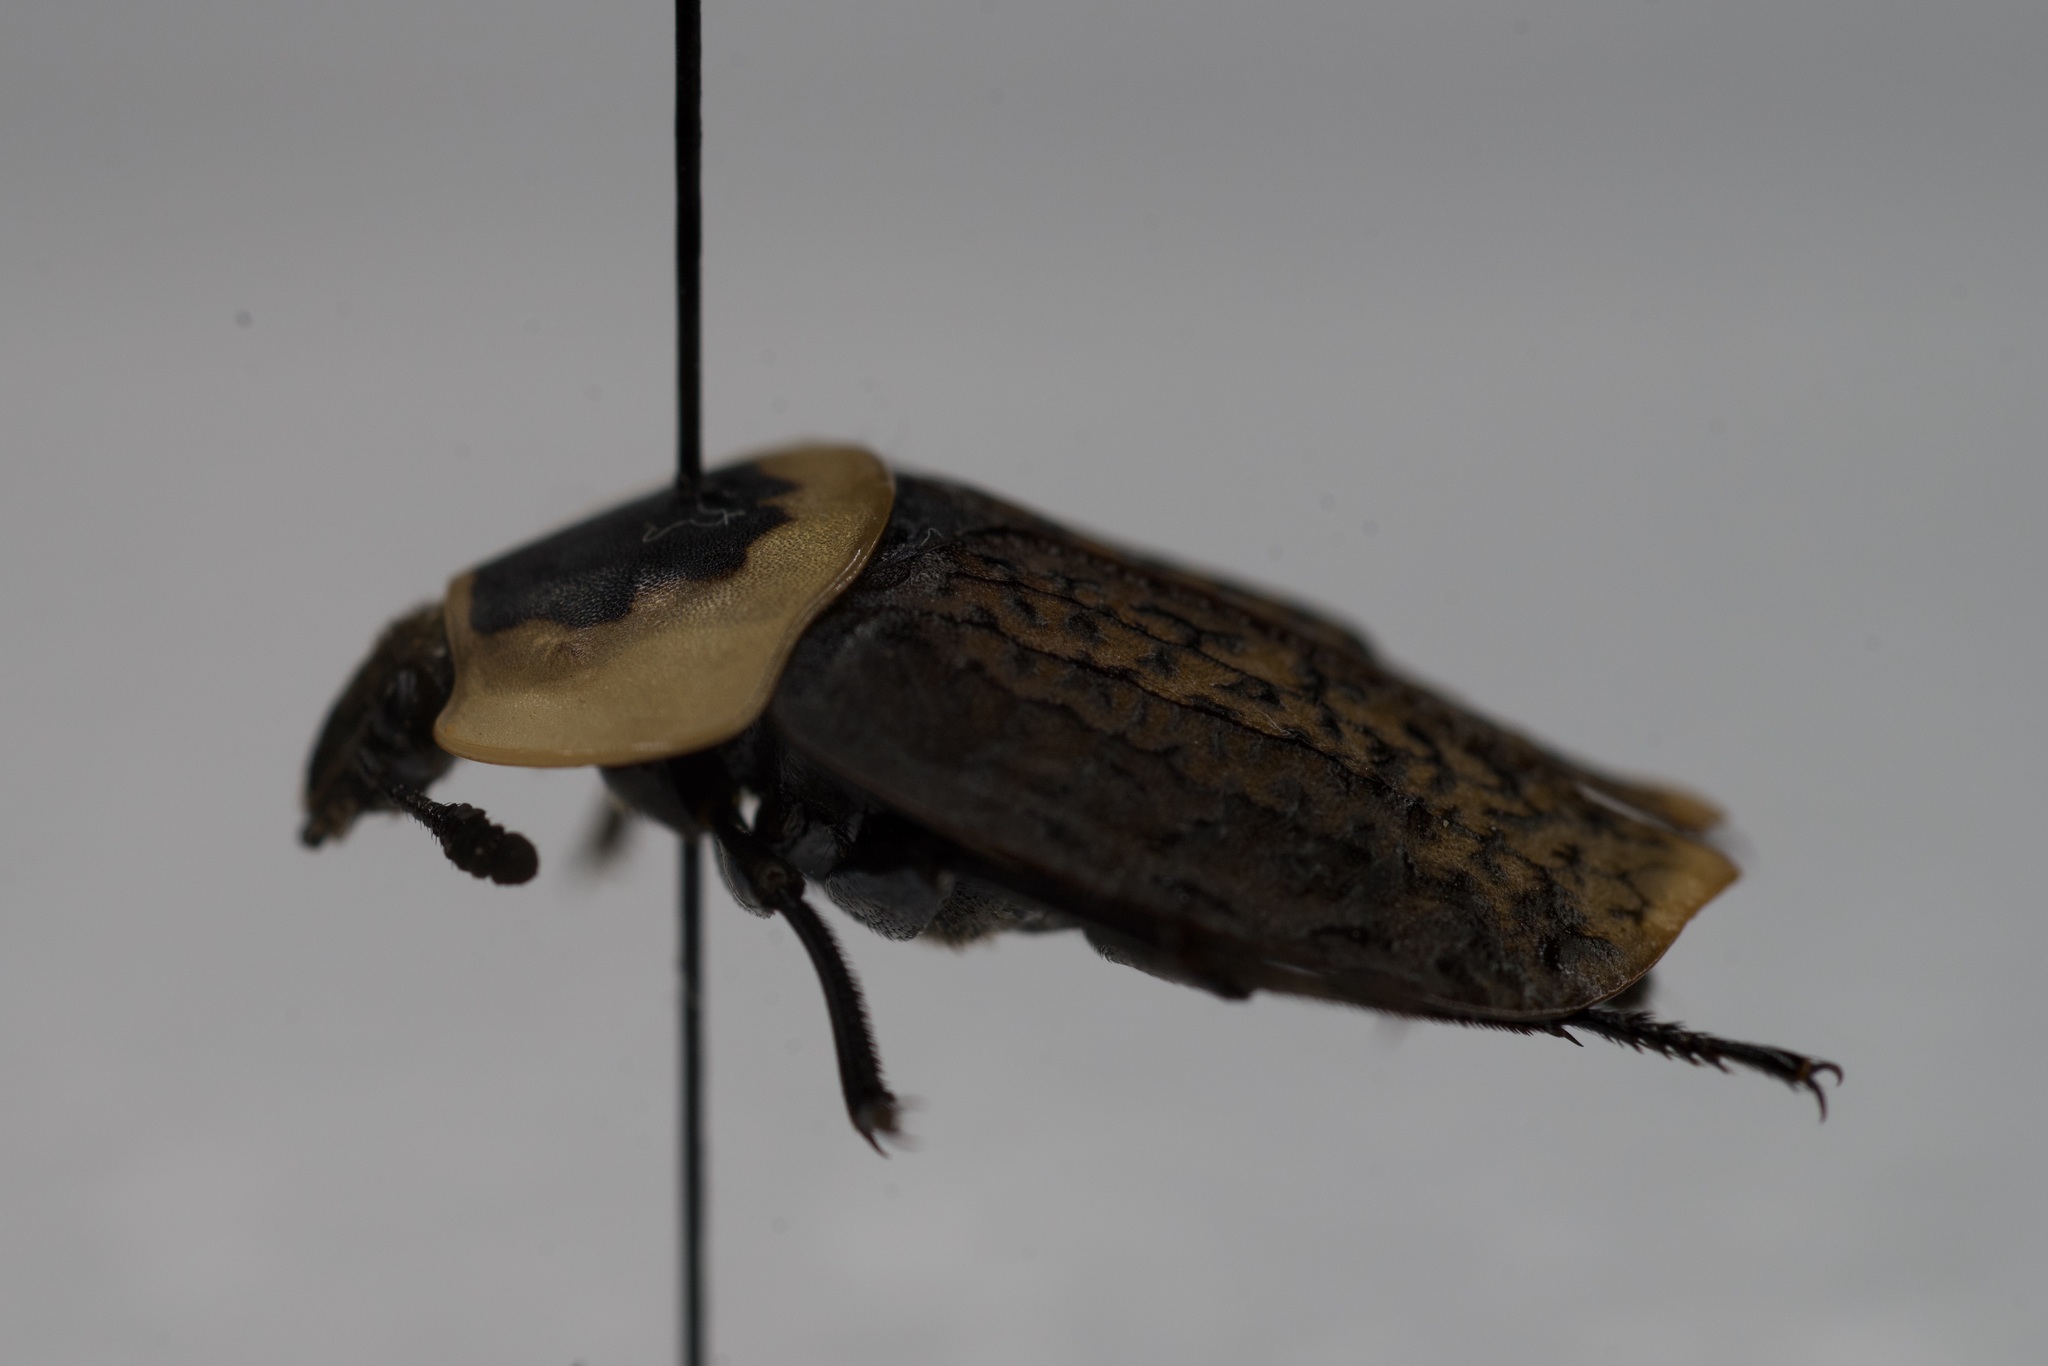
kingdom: Animalia
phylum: Arthropoda
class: Insecta
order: Coleoptera
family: Staphylinidae
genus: Necrophila
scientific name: Necrophila americana
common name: American carrion beetle
